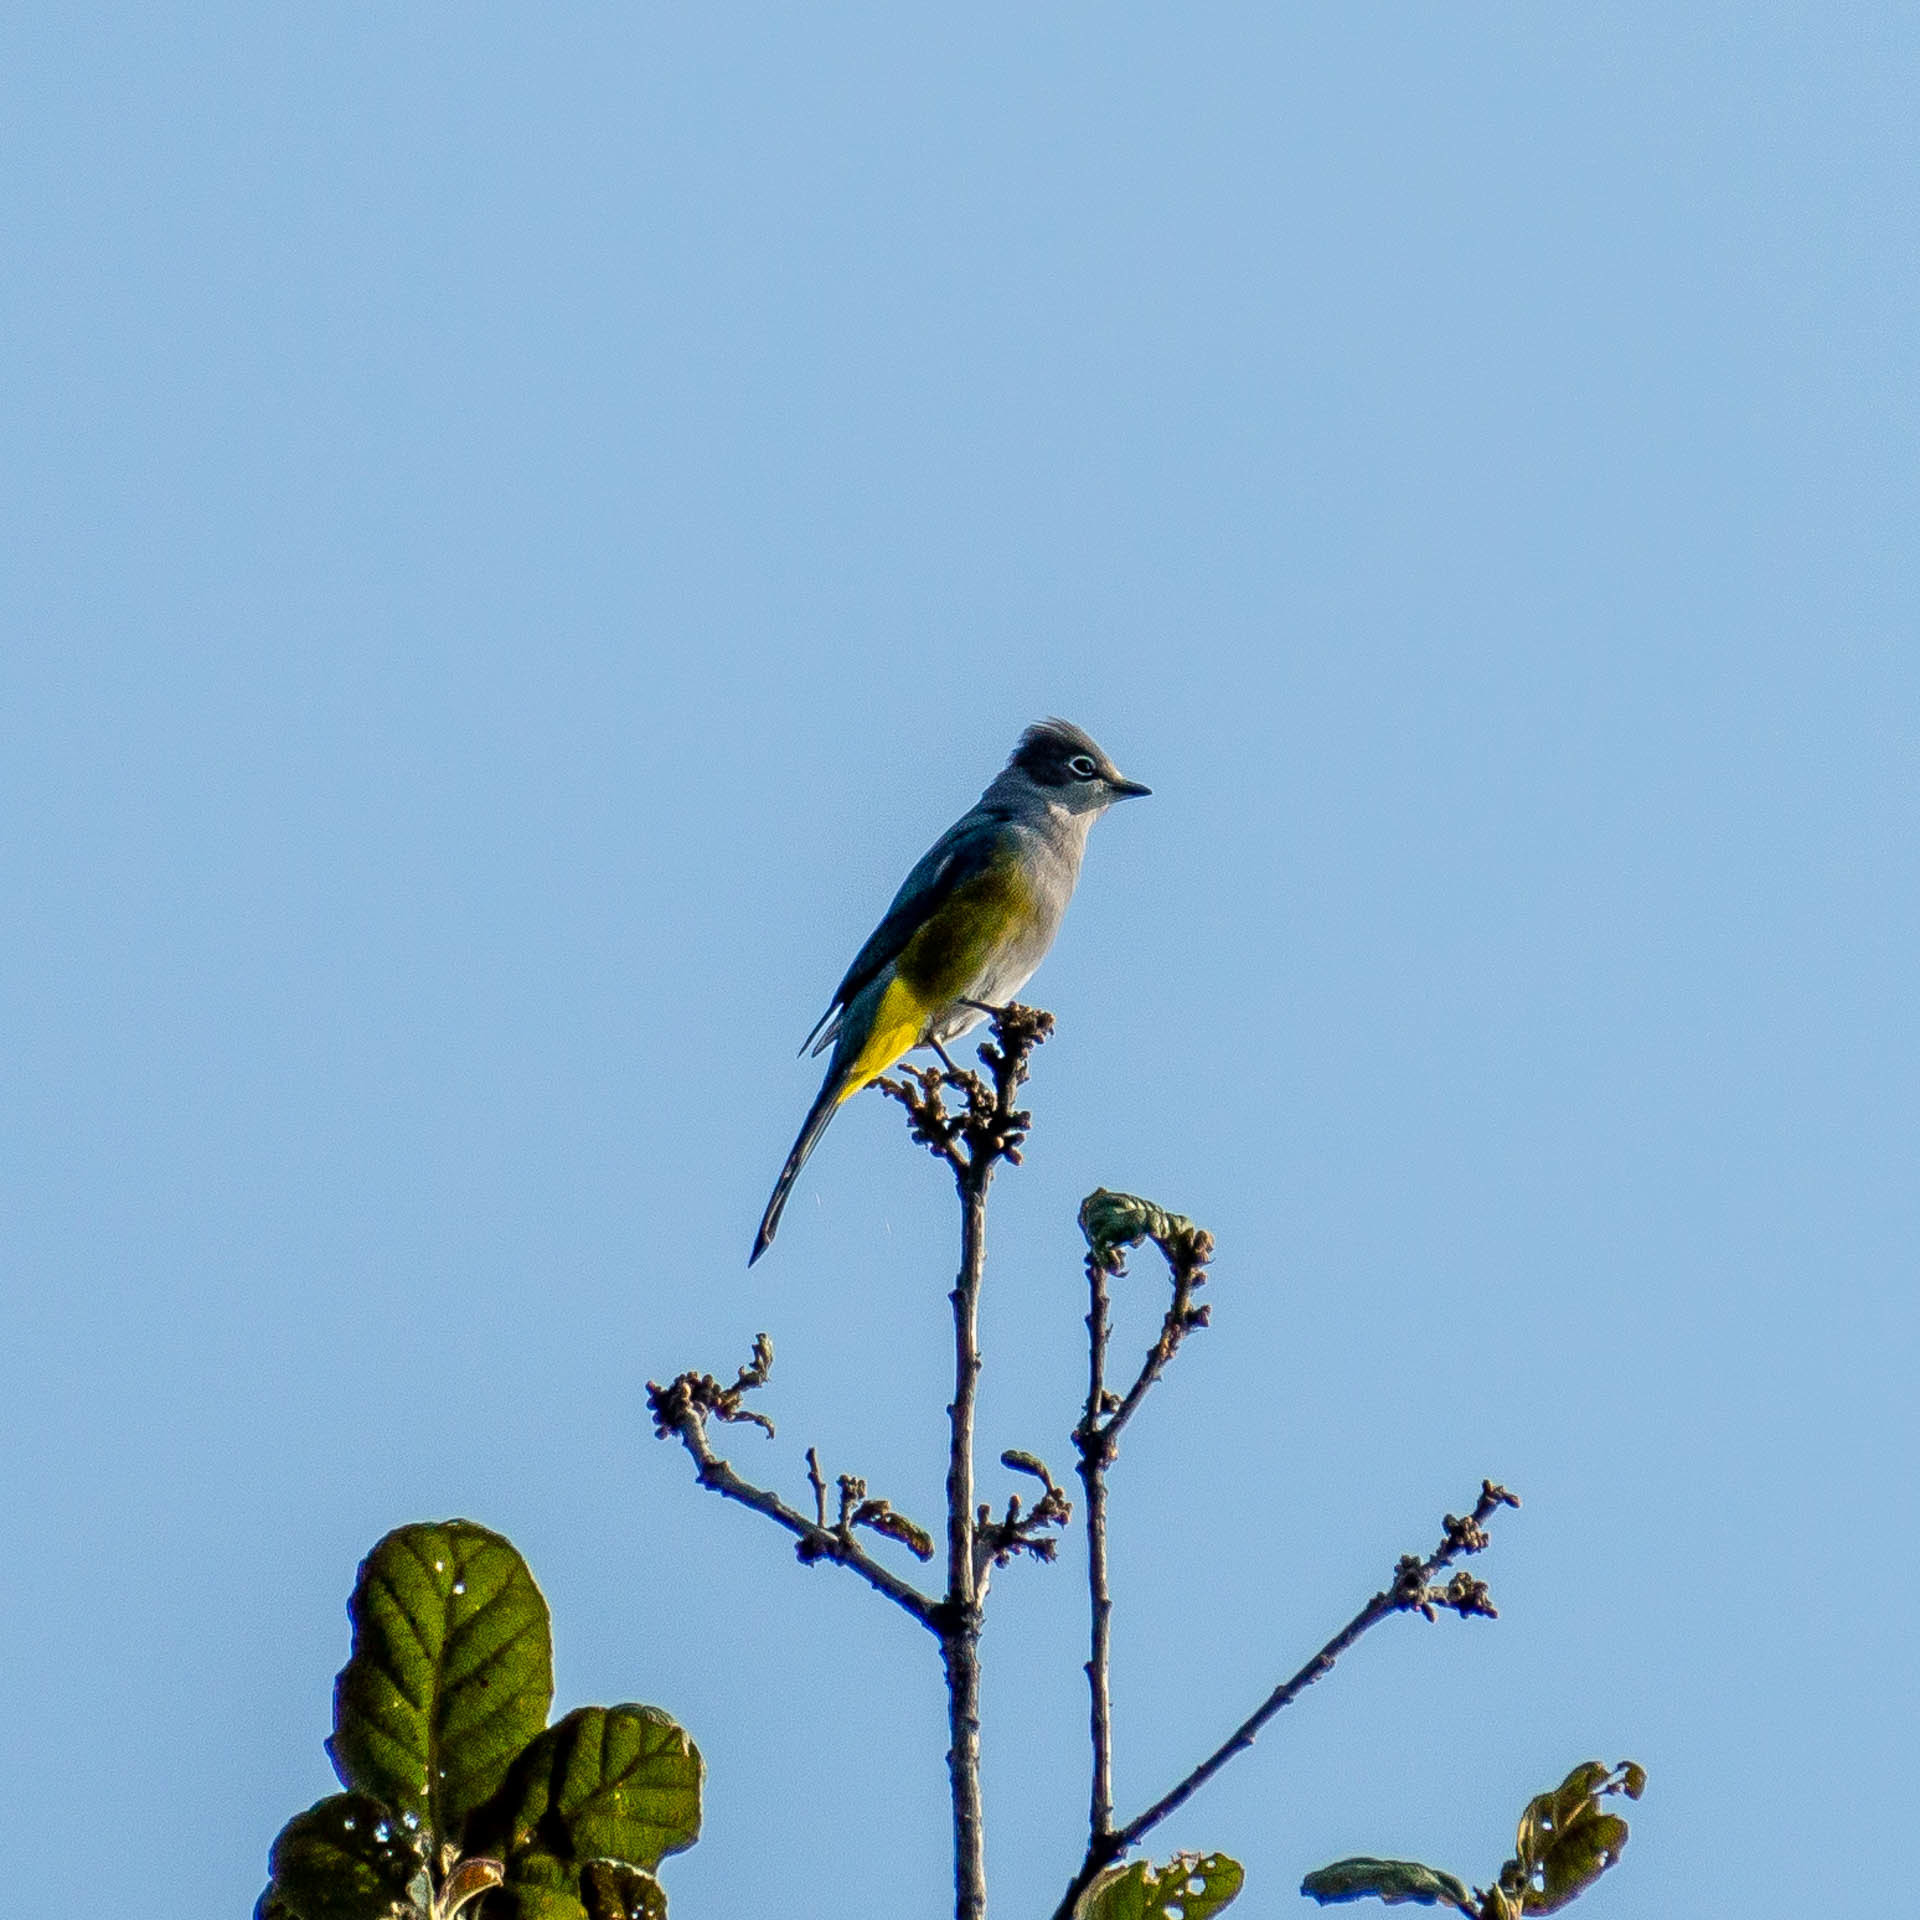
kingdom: Animalia
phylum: Chordata
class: Aves
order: Passeriformes
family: Ptilogonatidae
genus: Ptilogonys
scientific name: Ptilogonys cinereus
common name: Gray silky-flycatcher
